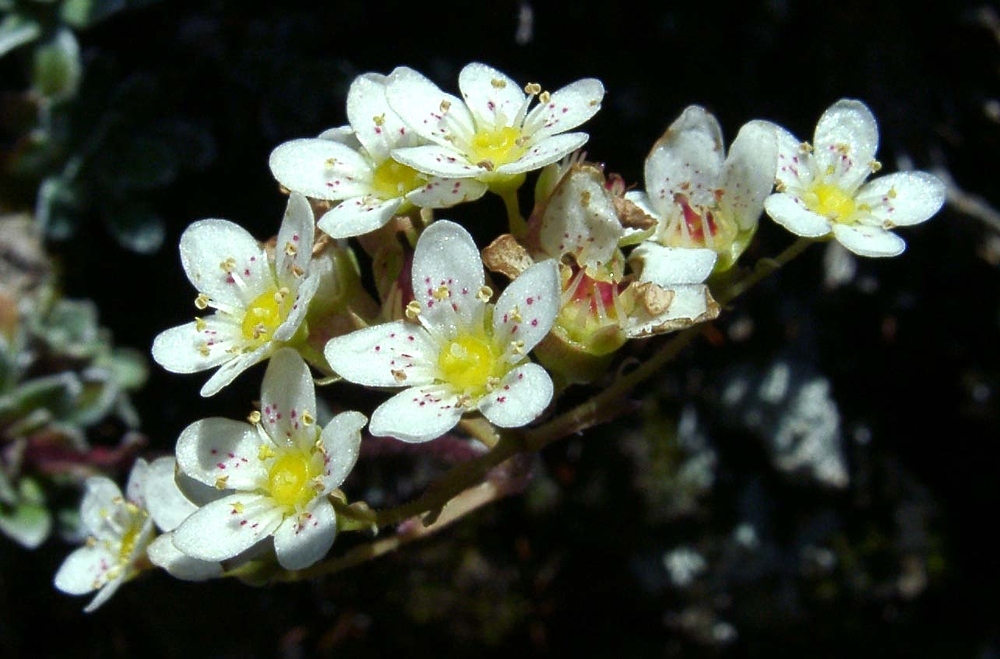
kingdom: Plantae
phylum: Tracheophyta
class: Magnoliopsida
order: Saxifragales
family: Saxifragaceae
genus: Saxifraga
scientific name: Saxifraga paniculata
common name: Livelong saxifrage
